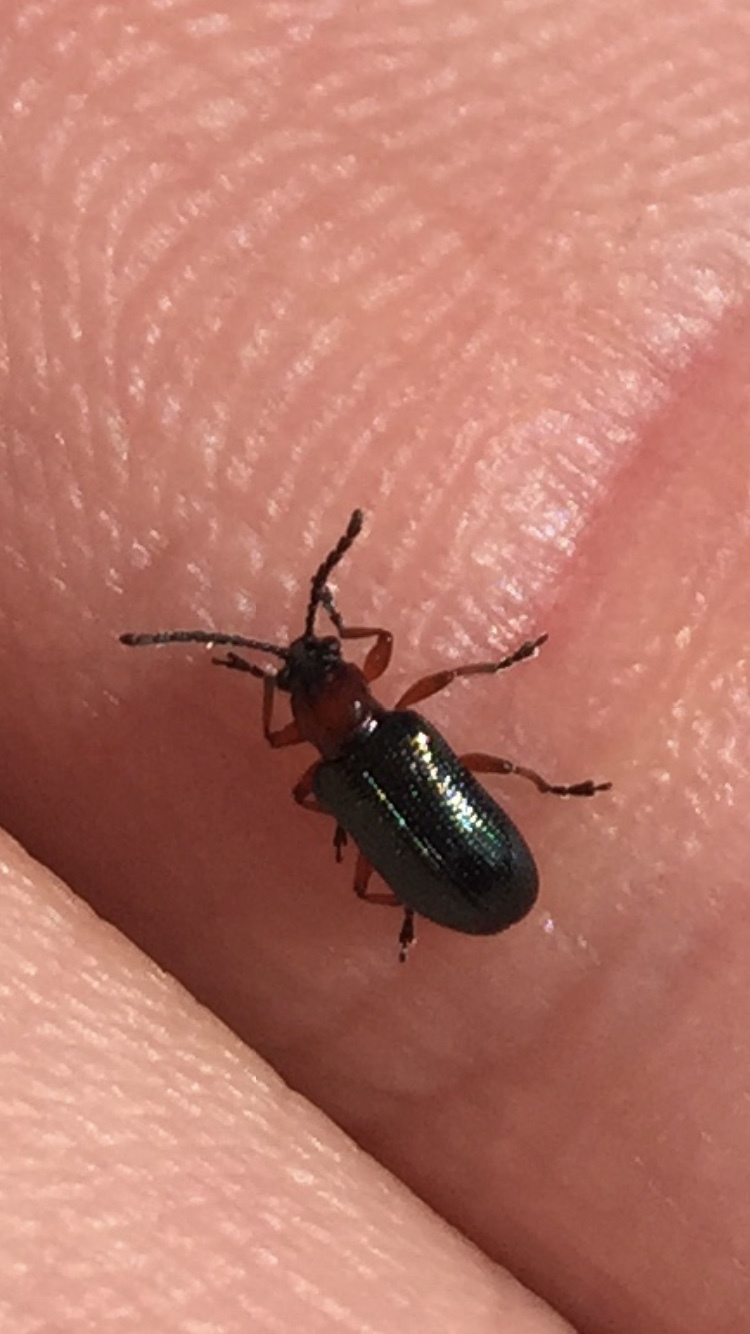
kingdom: Animalia
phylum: Arthropoda
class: Insecta
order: Coleoptera
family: Chrysomelidae
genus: Oulema
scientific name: Oulema
